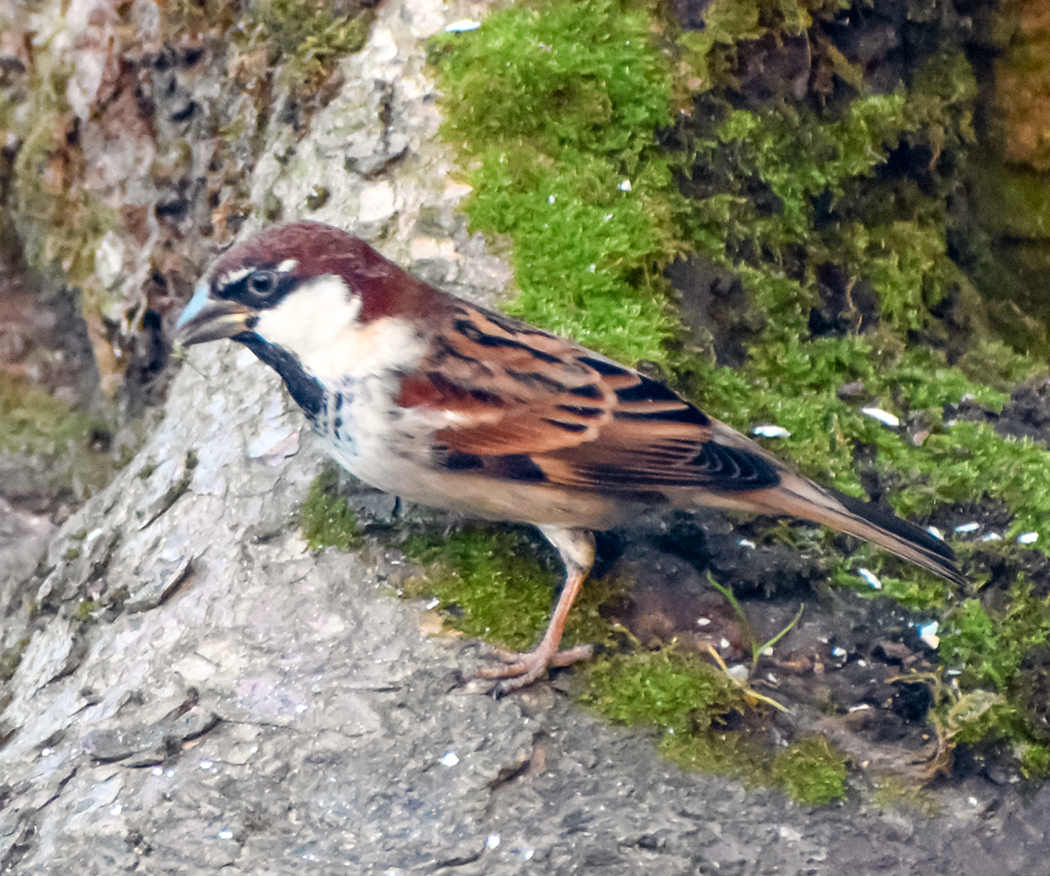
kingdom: Animalia
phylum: Chordata
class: Aves
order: Passeriformes
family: Passeridae
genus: Passer
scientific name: Passer italiae
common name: Italian sparrow
